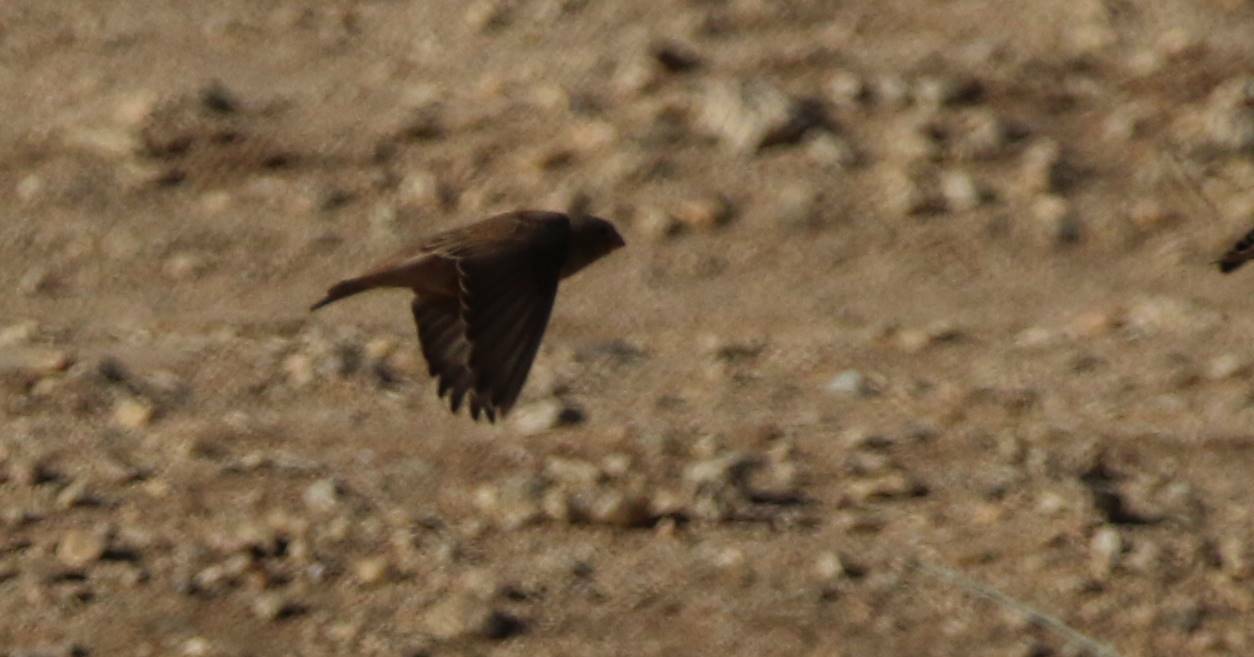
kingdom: Animalia
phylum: Chordata
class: Aves
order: Passeriformes
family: Fringillidae
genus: Bucanetes
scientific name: Bucanetes githagineus
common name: Trumpeter finch
